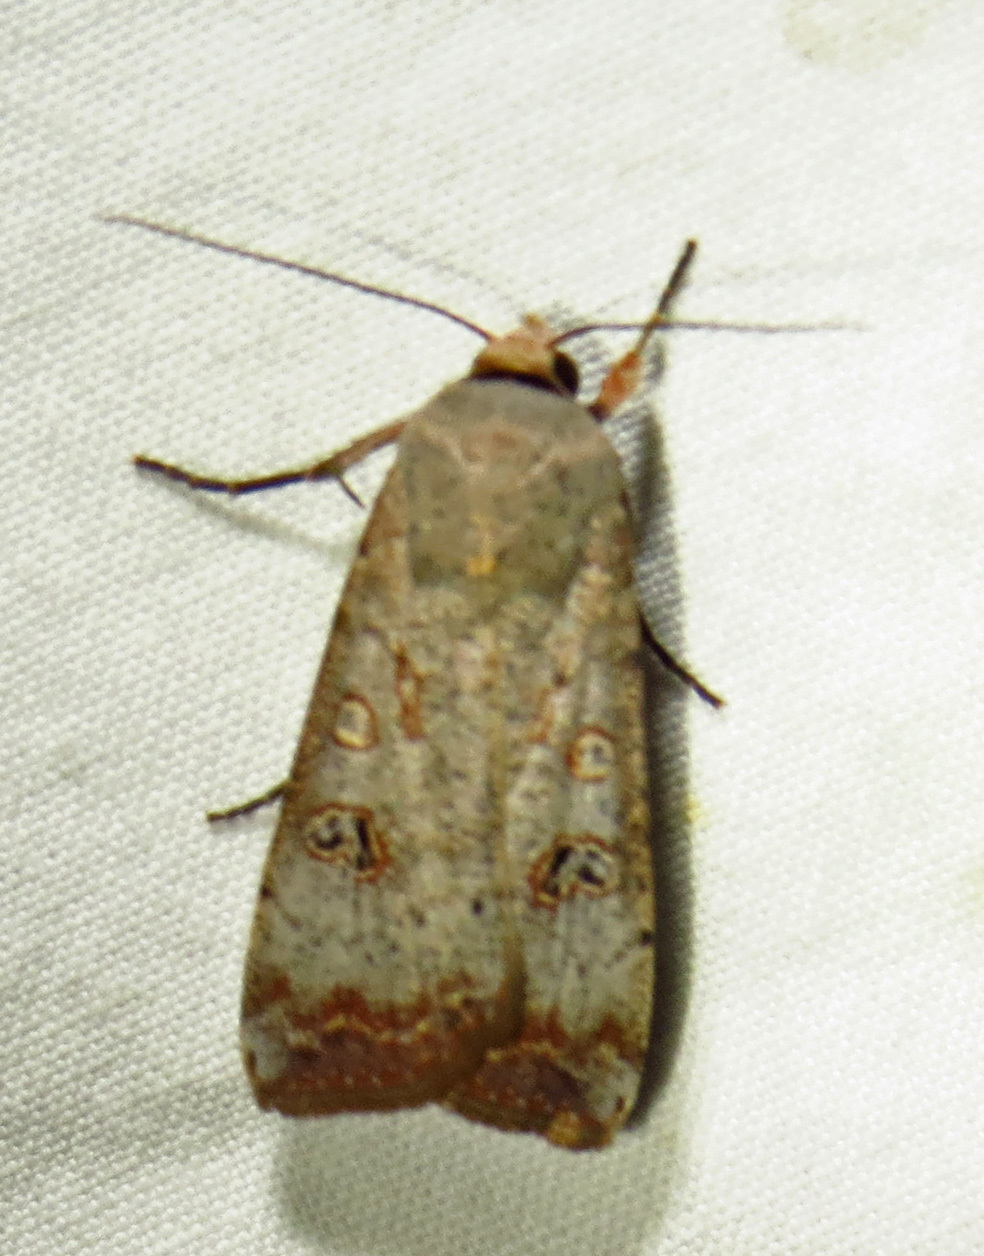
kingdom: Animalia
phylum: Arthropoda
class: Insecta
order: Lepidoptera
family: Noctuidae
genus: Anicla
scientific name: Anicla infecta
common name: Green cutworm
